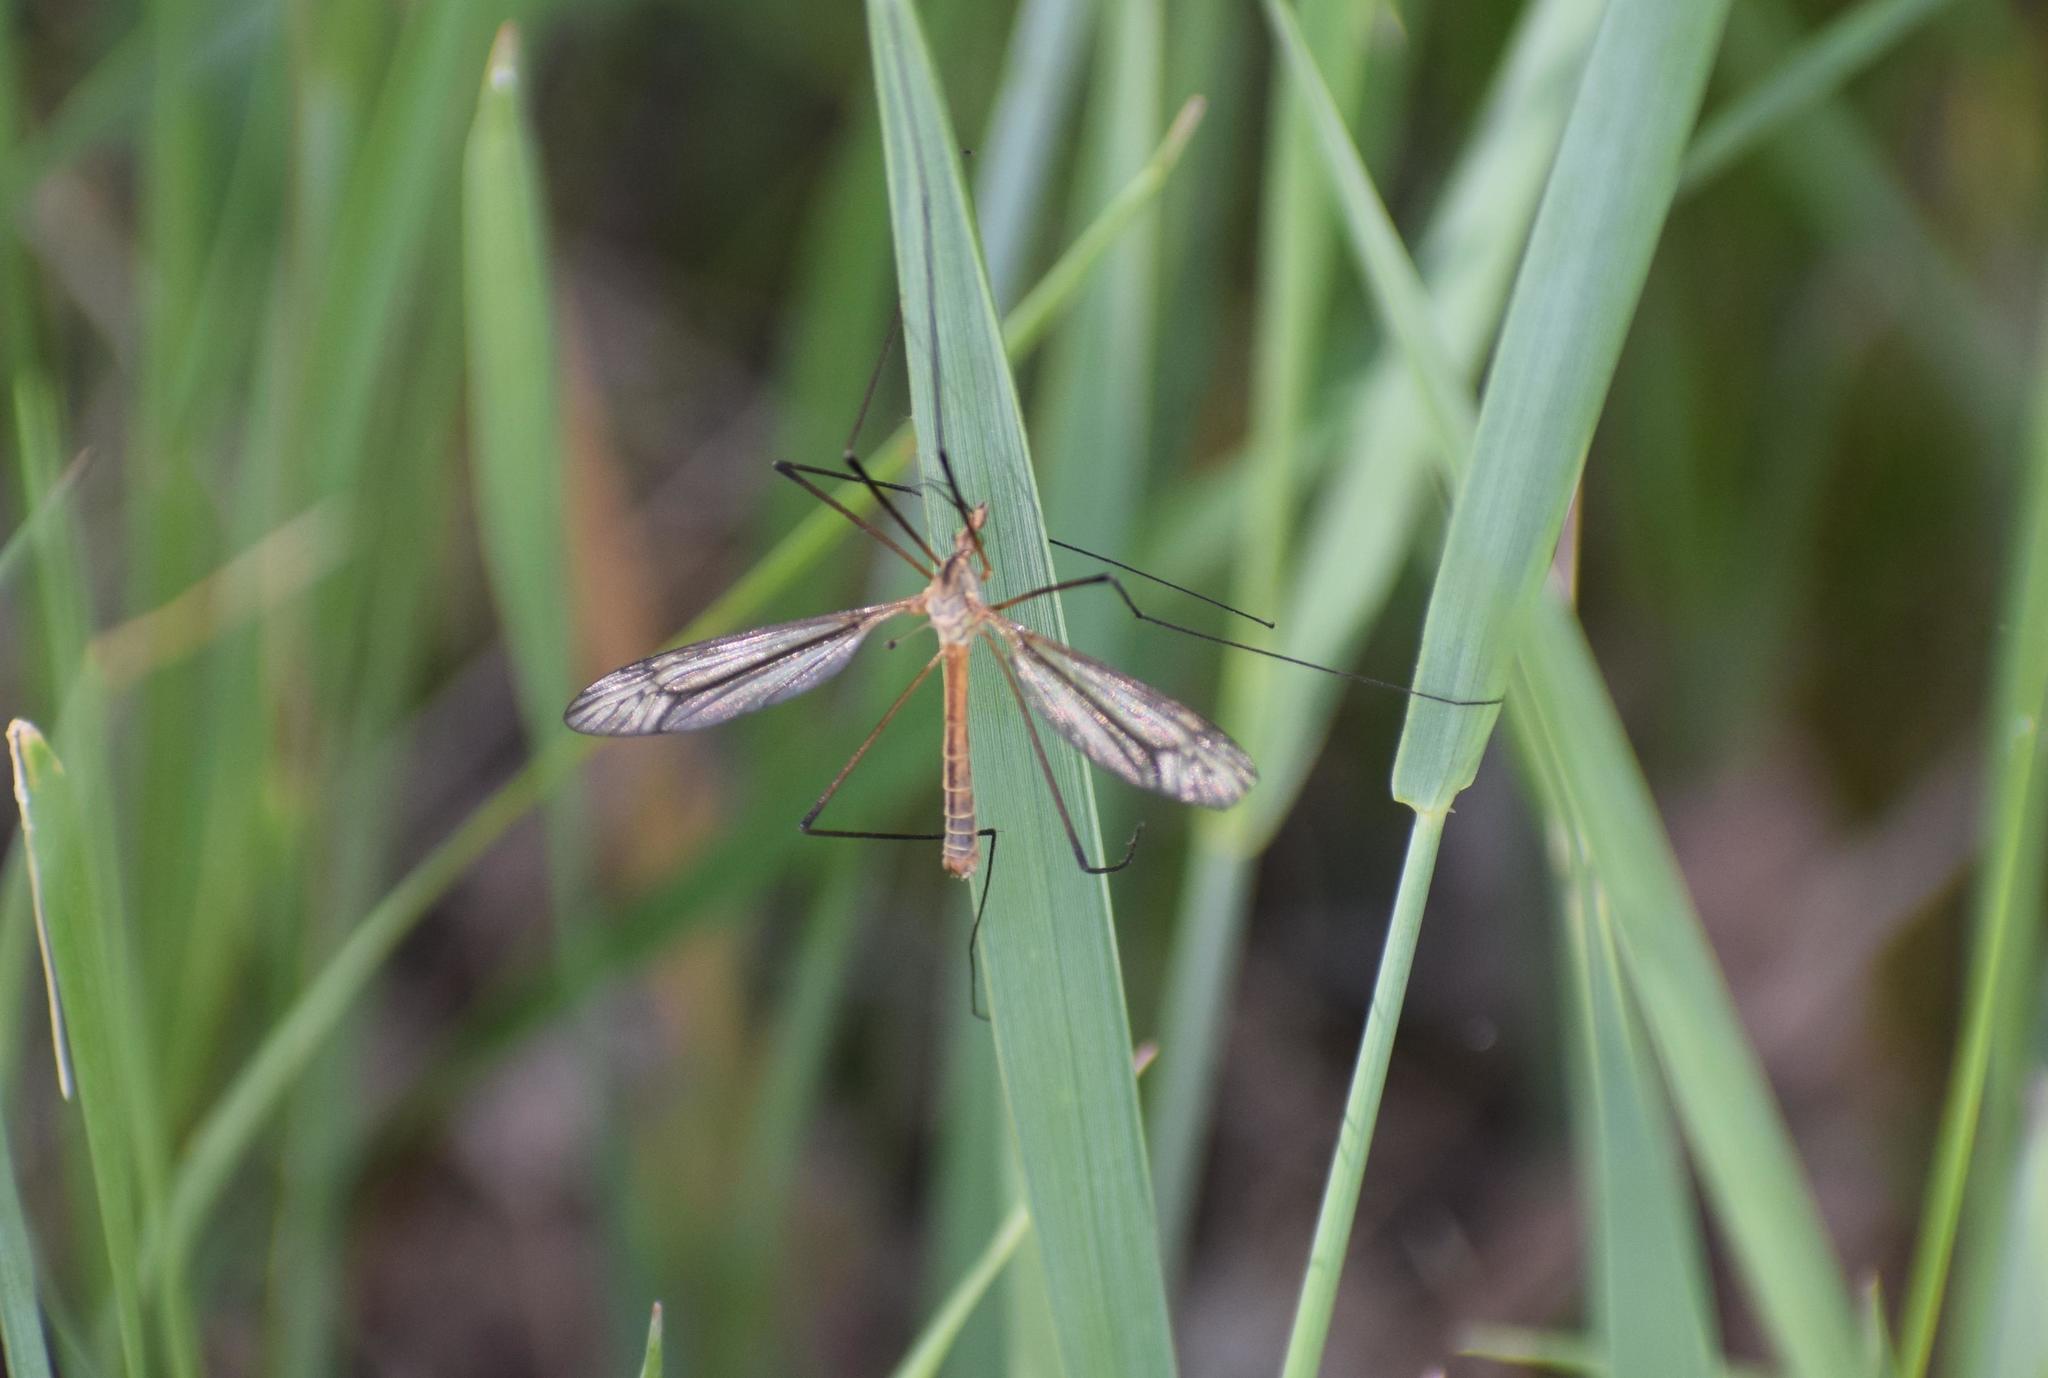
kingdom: Animalia
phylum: Arthropoda
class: Insecta
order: Diptera
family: Tipulidae
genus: Tipula
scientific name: Tipula paludosa
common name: European cranefly
